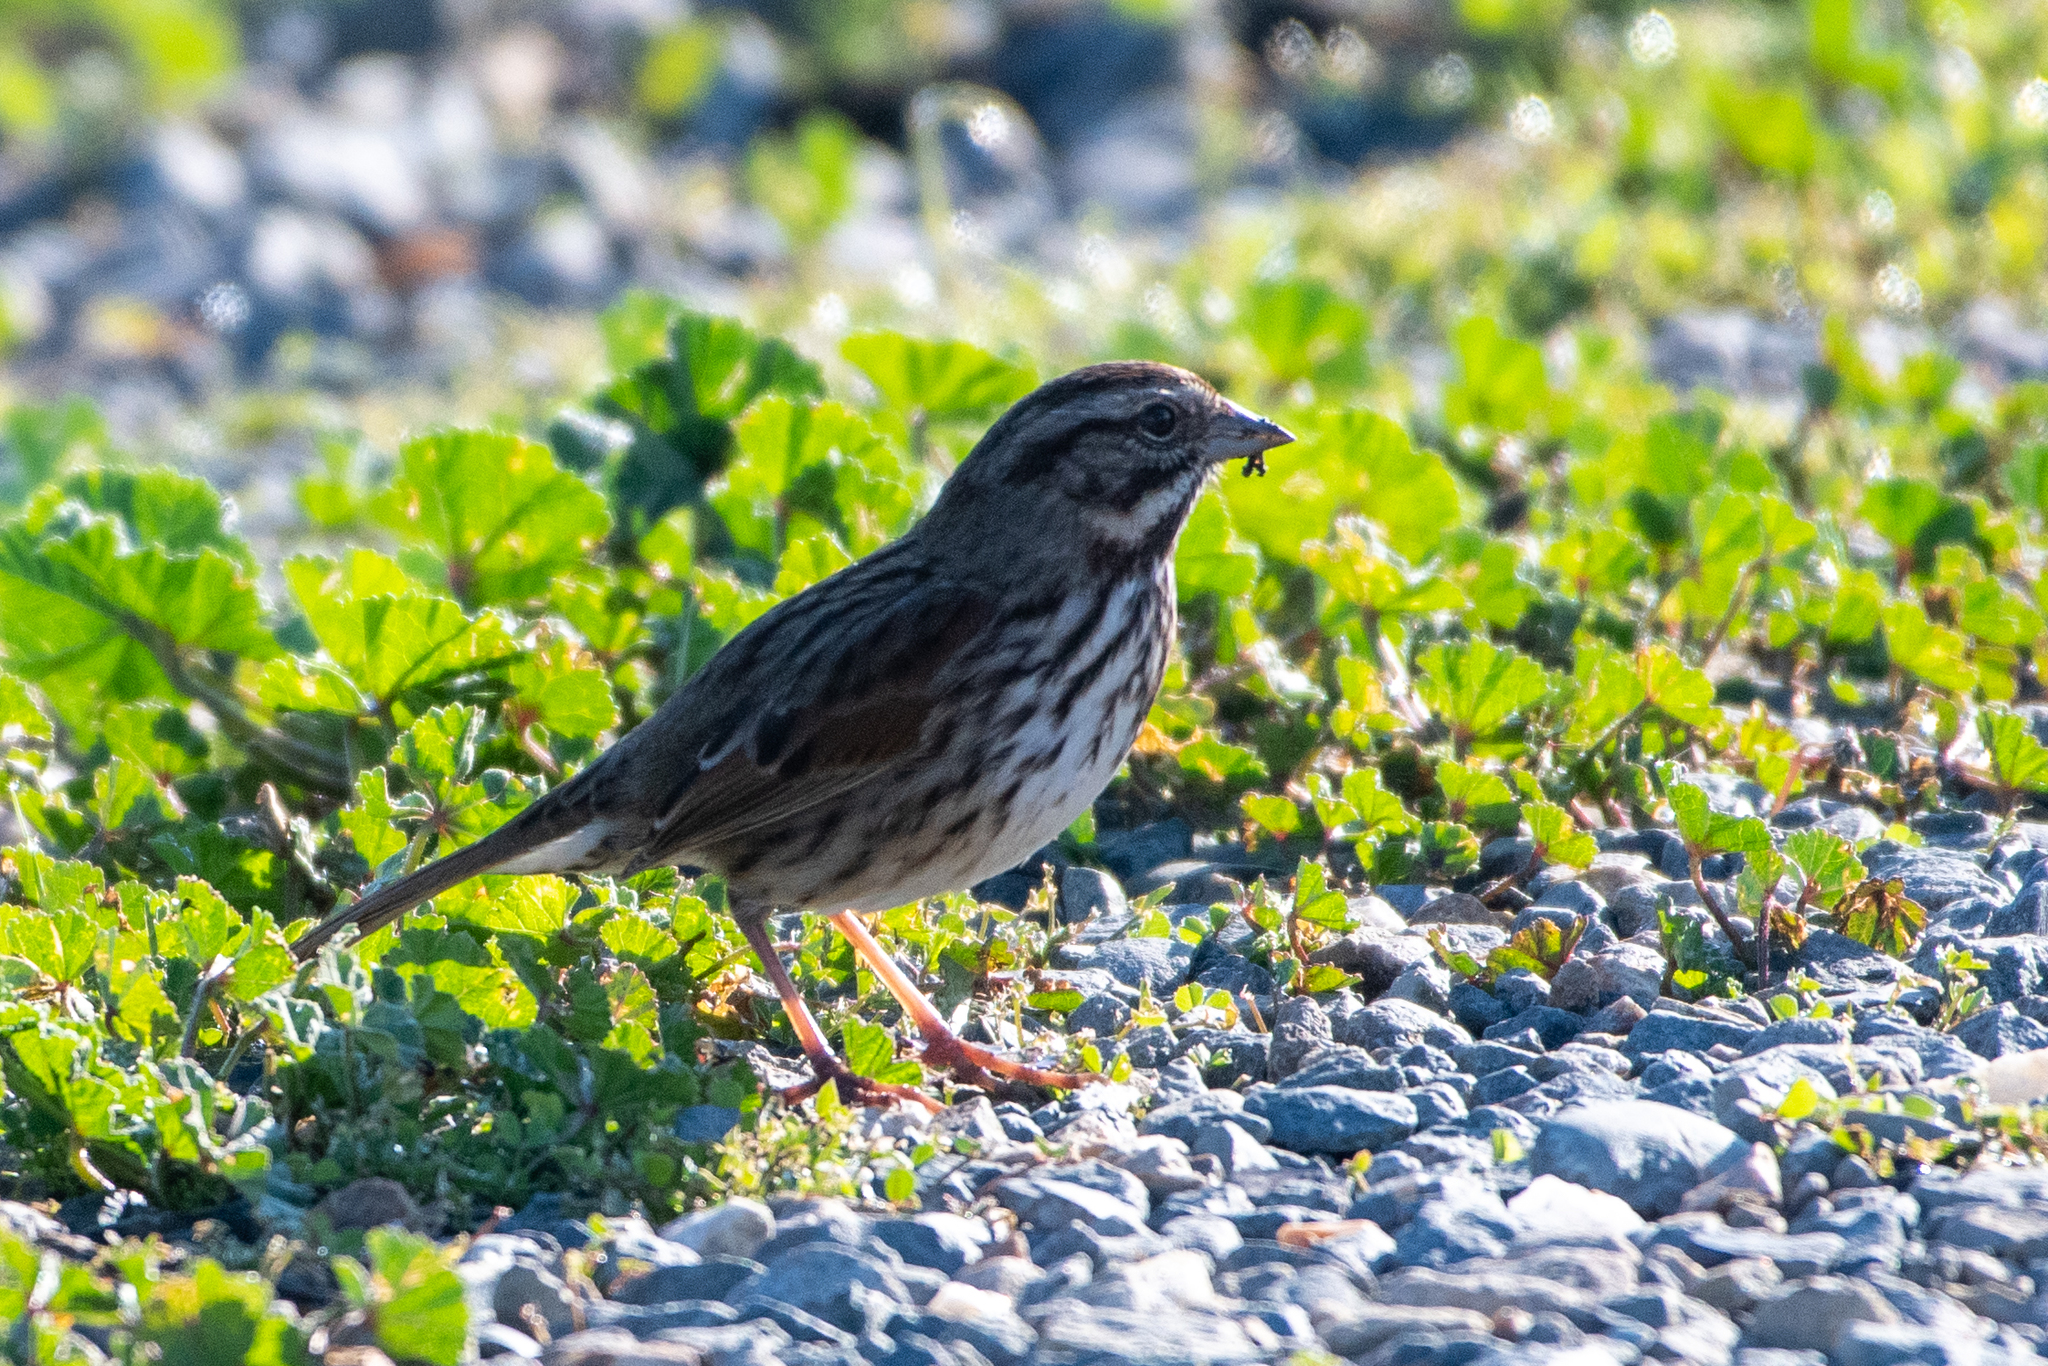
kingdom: Animalia
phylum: Chordata
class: Aves
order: Passeriformes
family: Passerellidae
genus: Melospiza
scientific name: Melospiza melodia
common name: Song sparrow
